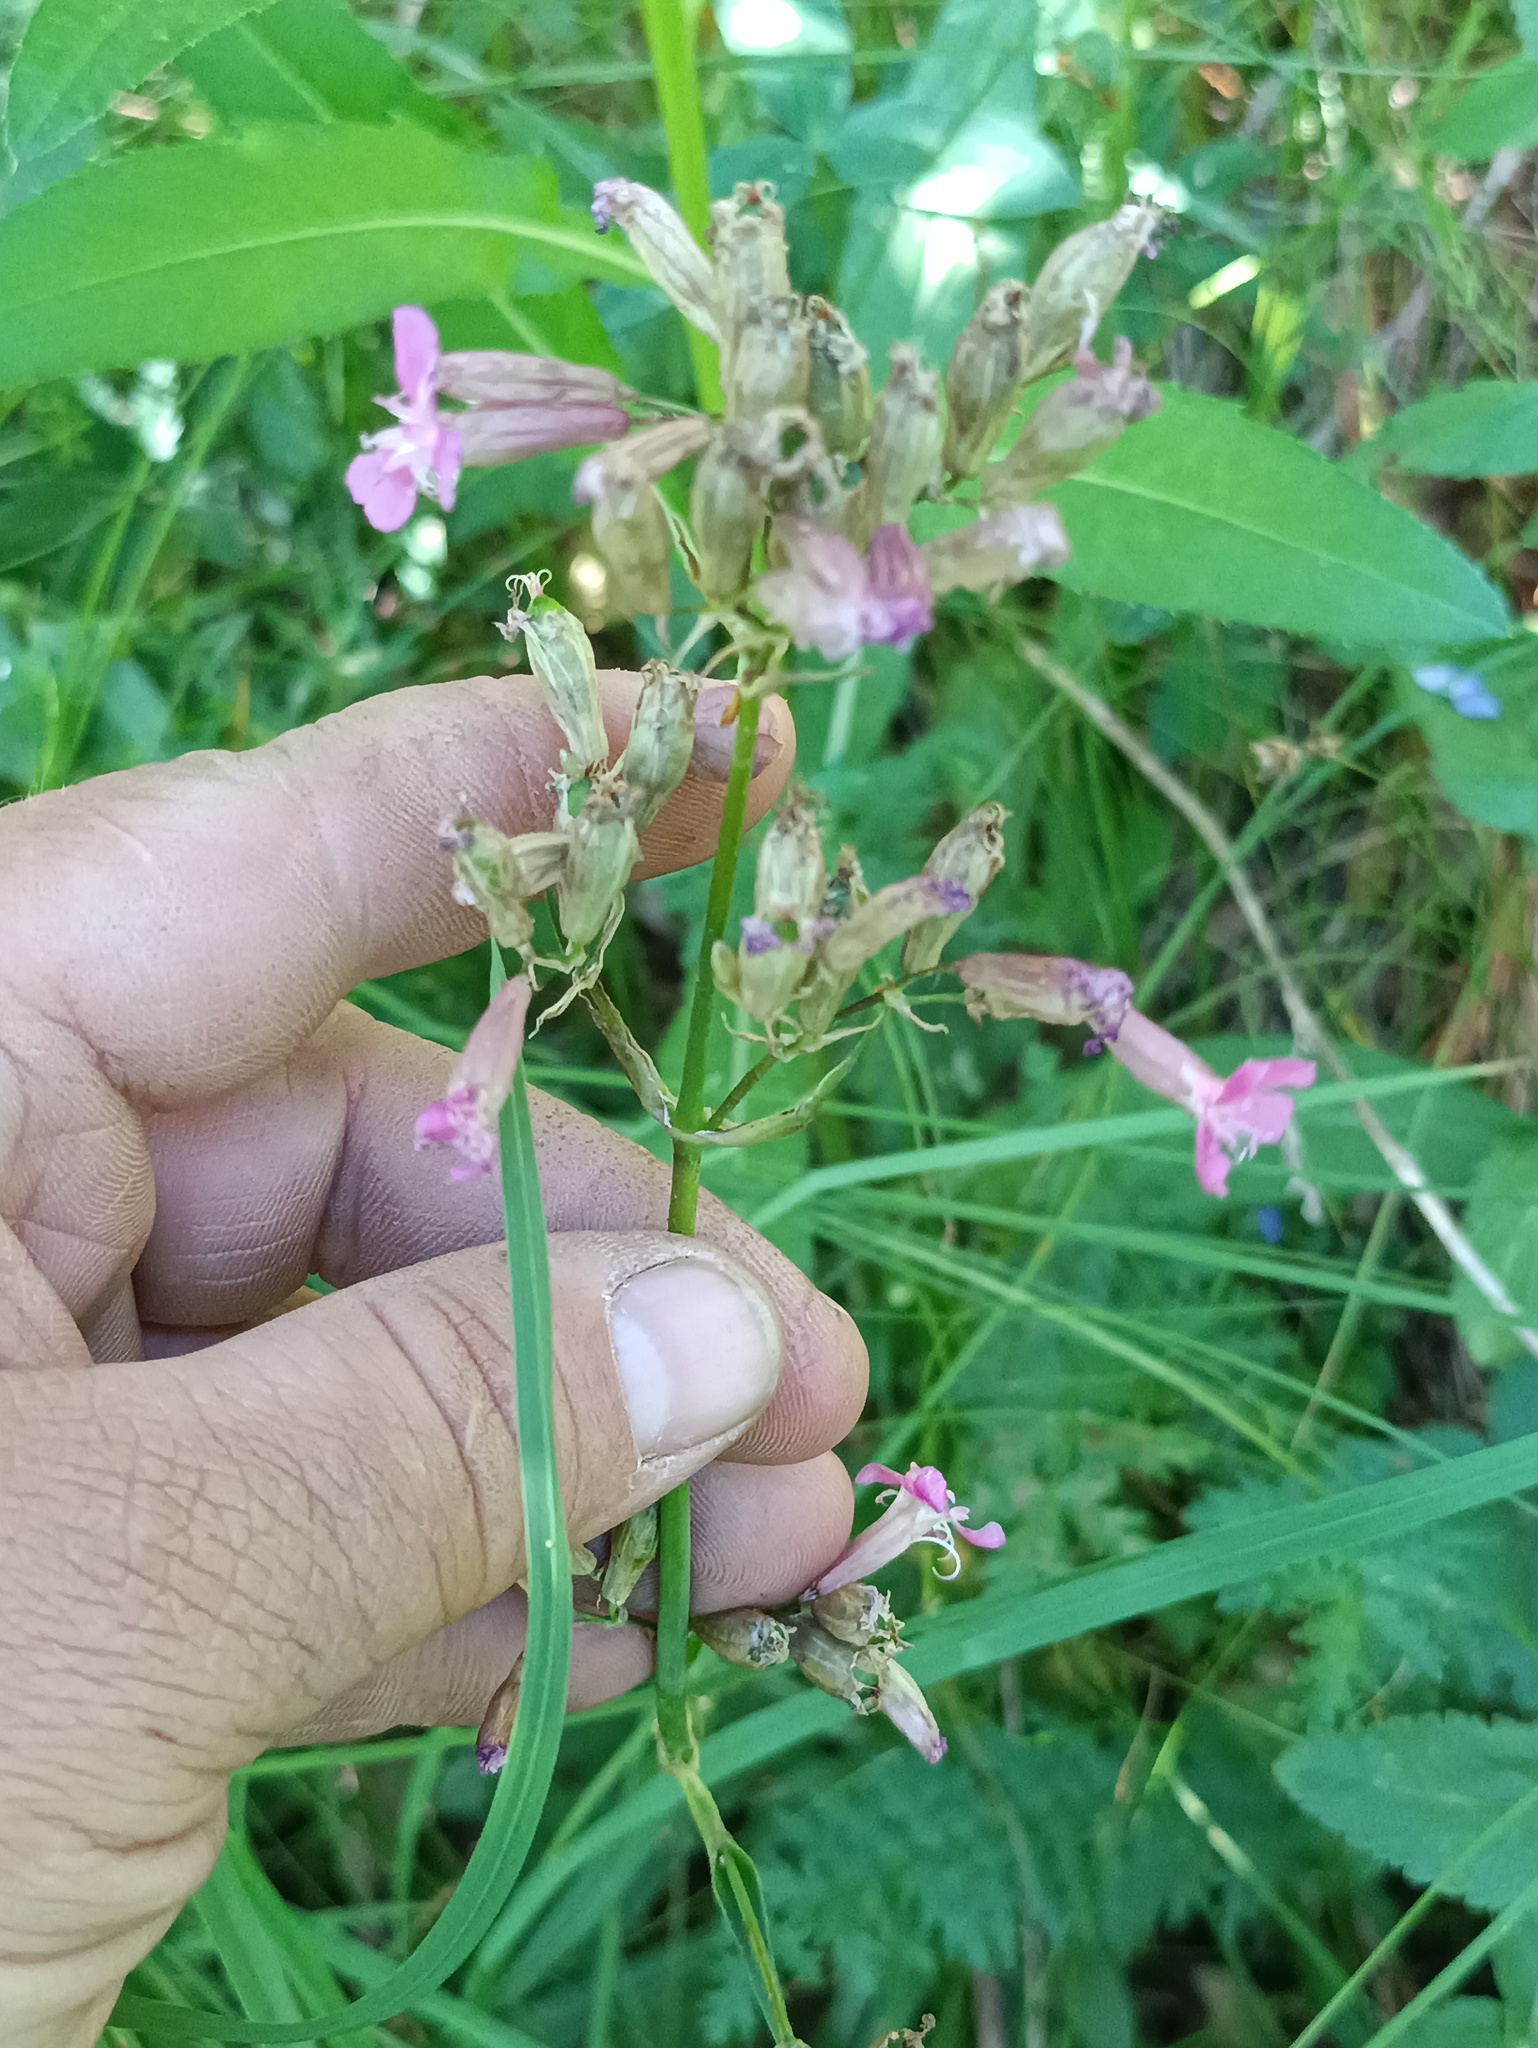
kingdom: Plantae
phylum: Tracheophyta
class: Magnoliopsida
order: Caryophyllales
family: Caryophyllaceae
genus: Viscaria
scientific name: Viscaria vulgaris
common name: Clammy campion
